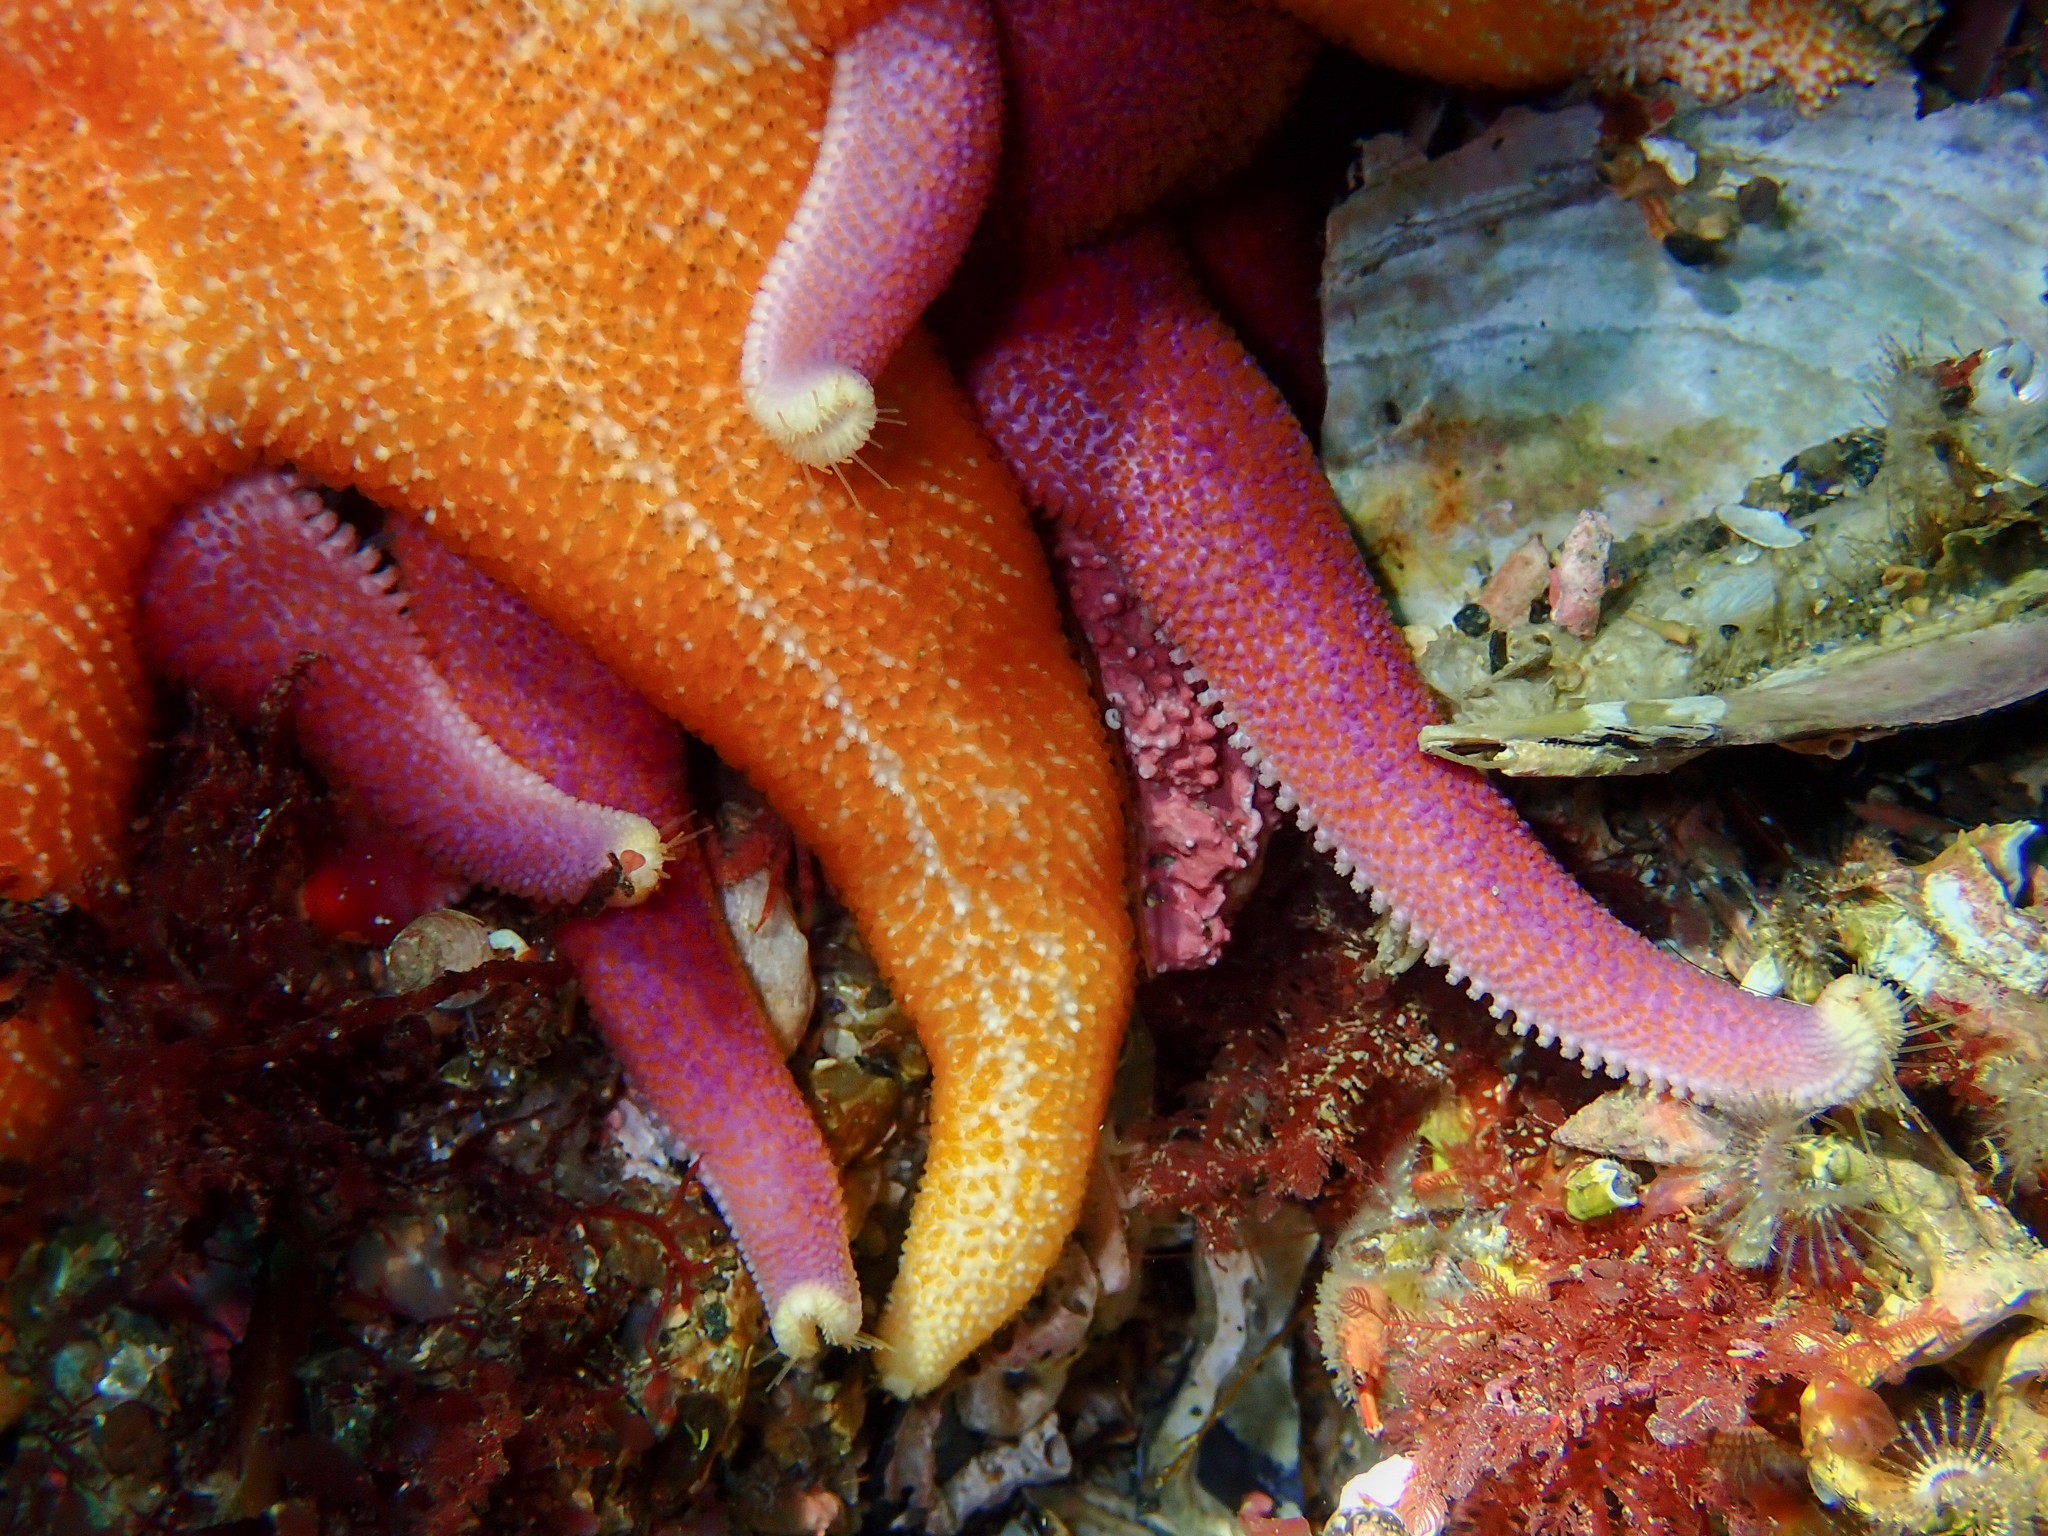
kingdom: Animalia
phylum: Echinodermata
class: Asteroidea
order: Valvatida
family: Solasteridae
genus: Solaster
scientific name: Solaster endeca
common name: Purple sun star
